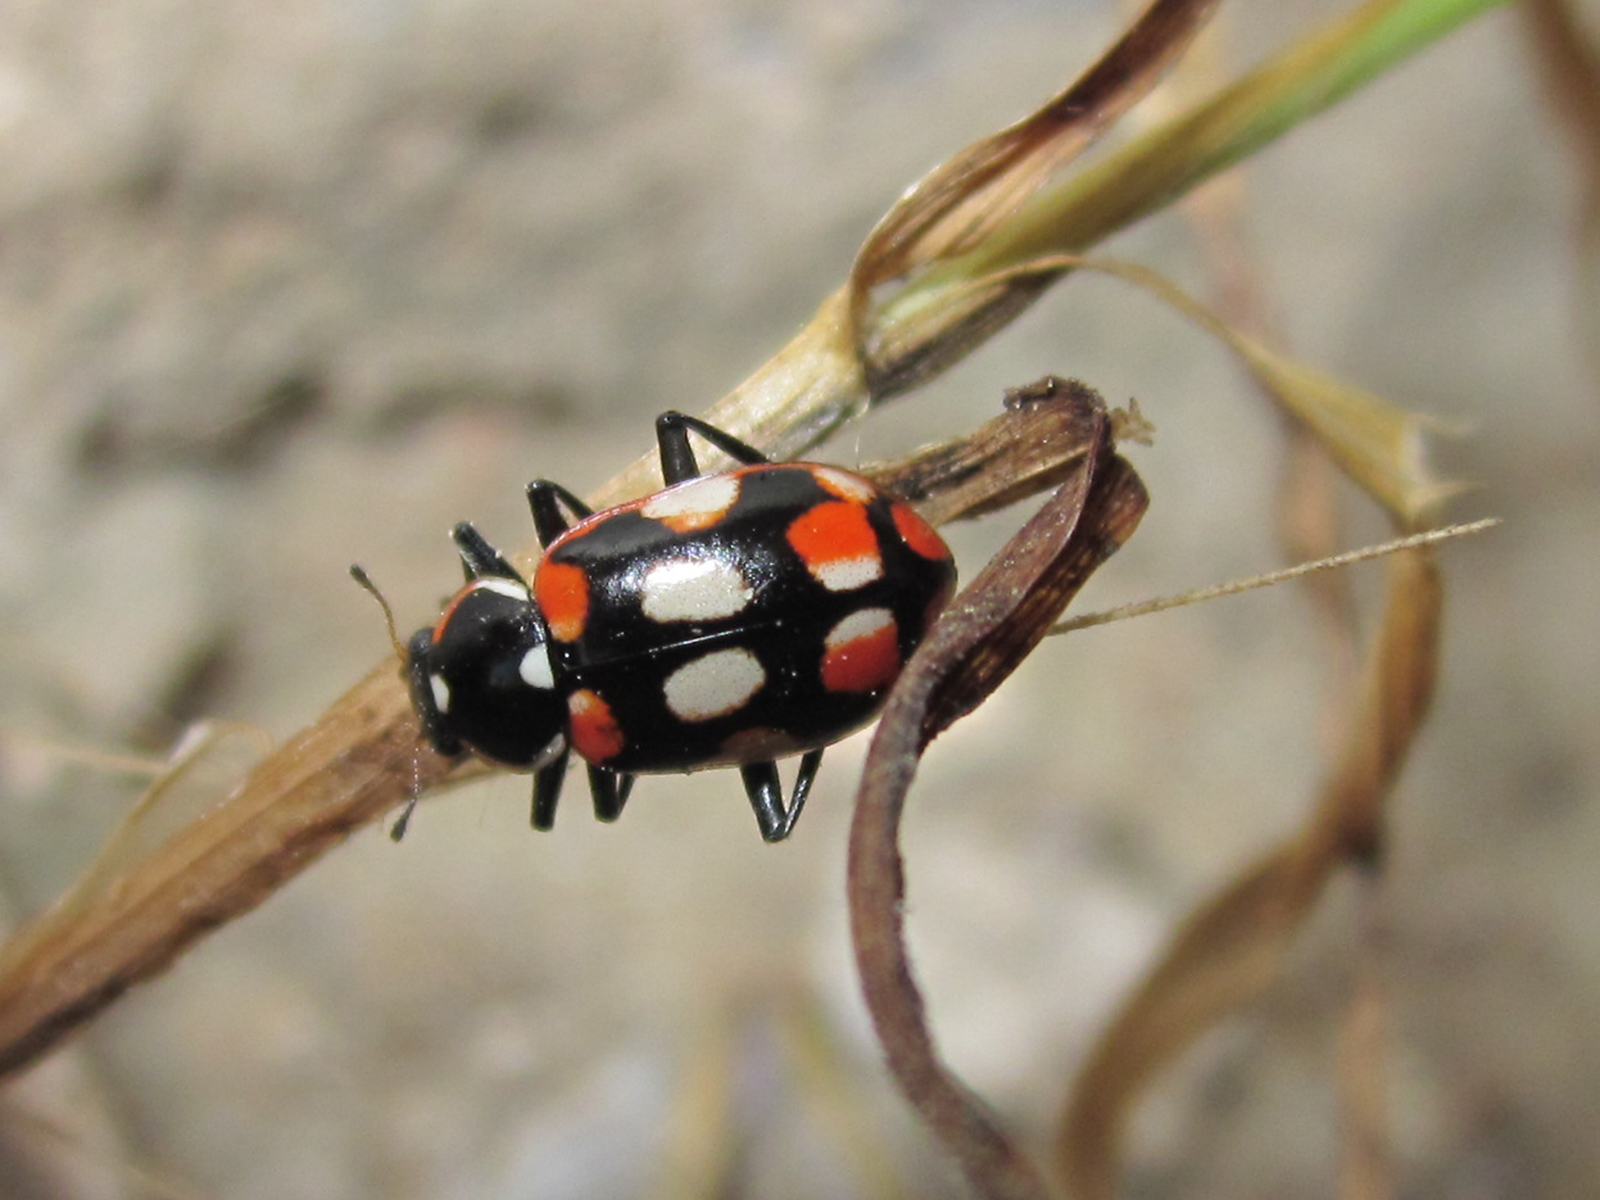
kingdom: Animalia
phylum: Arthropoda
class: Insecta
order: Coleoptera
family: Coccinellidae
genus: Eriopis
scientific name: Eriopis chilensis
